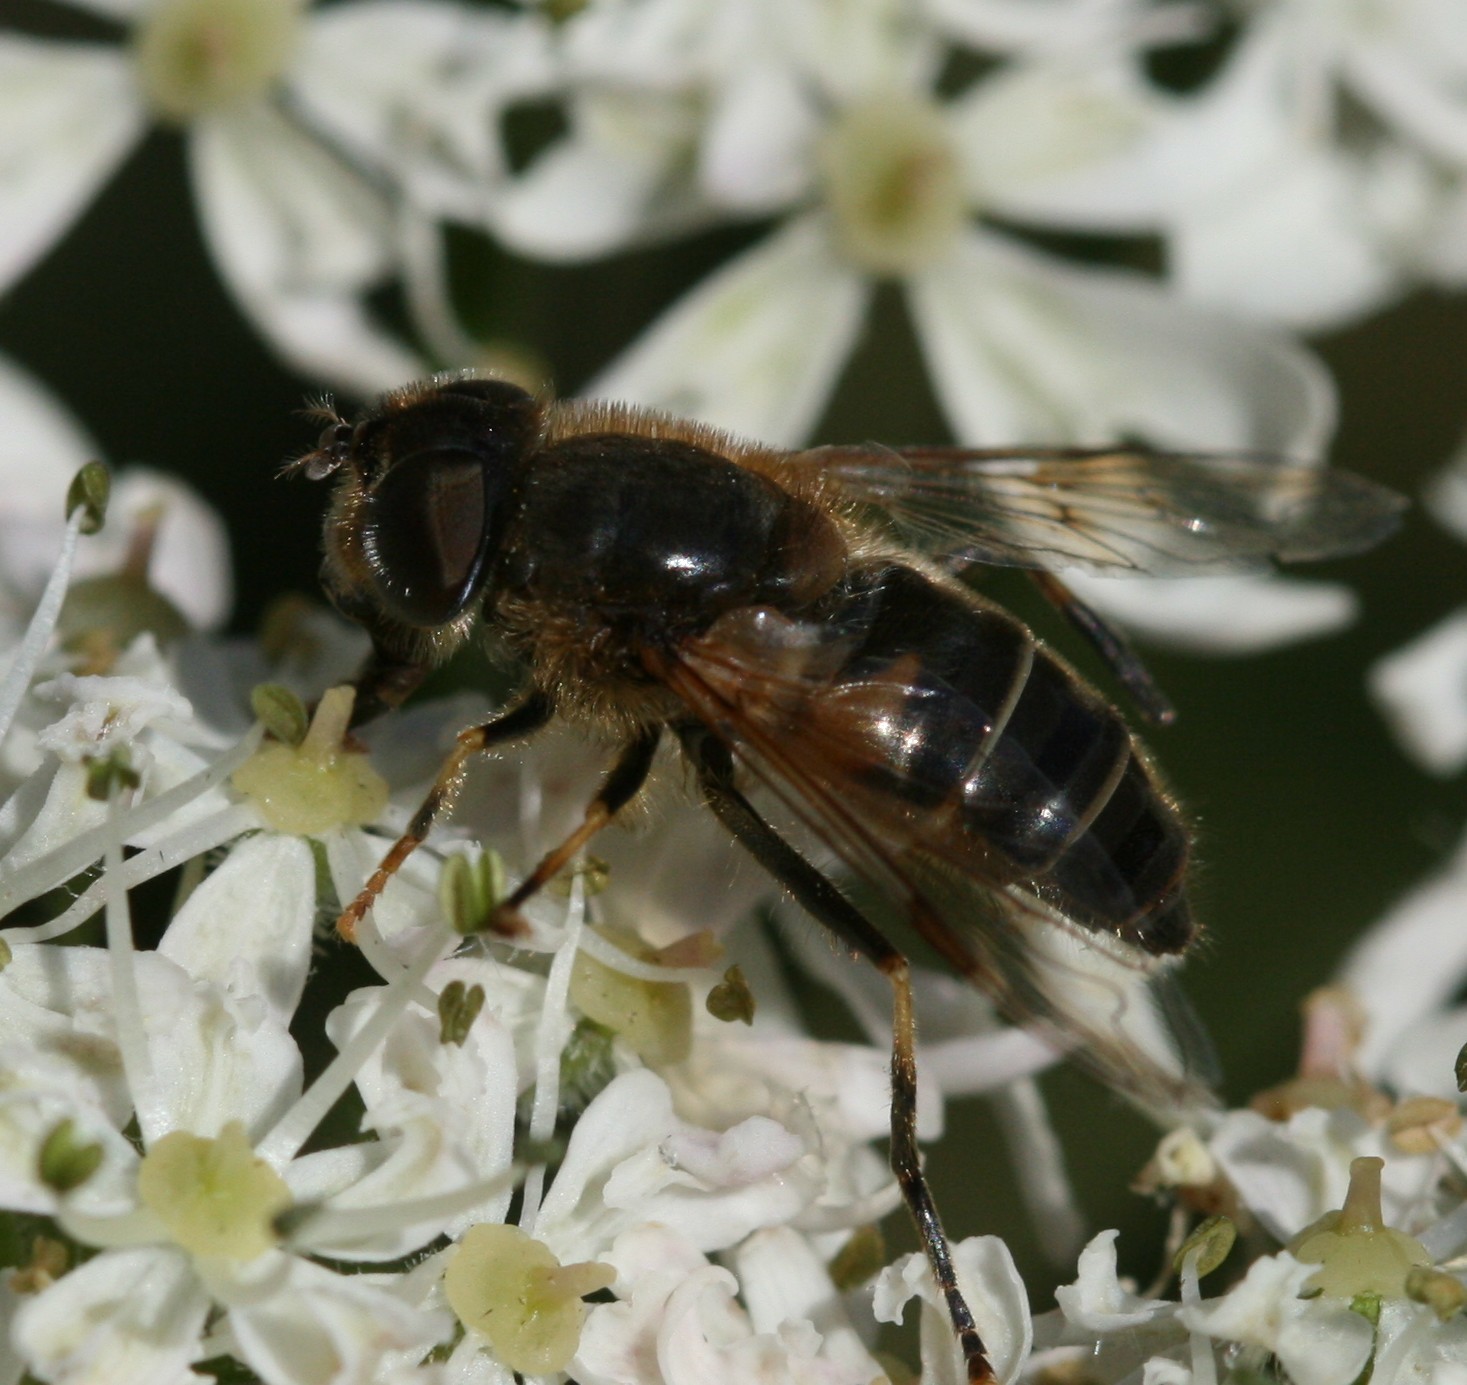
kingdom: Animalia
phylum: Arthropoda
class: Insecta
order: Diptera
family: Syrphidae
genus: Eristalis
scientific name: Eristalis pertinax
